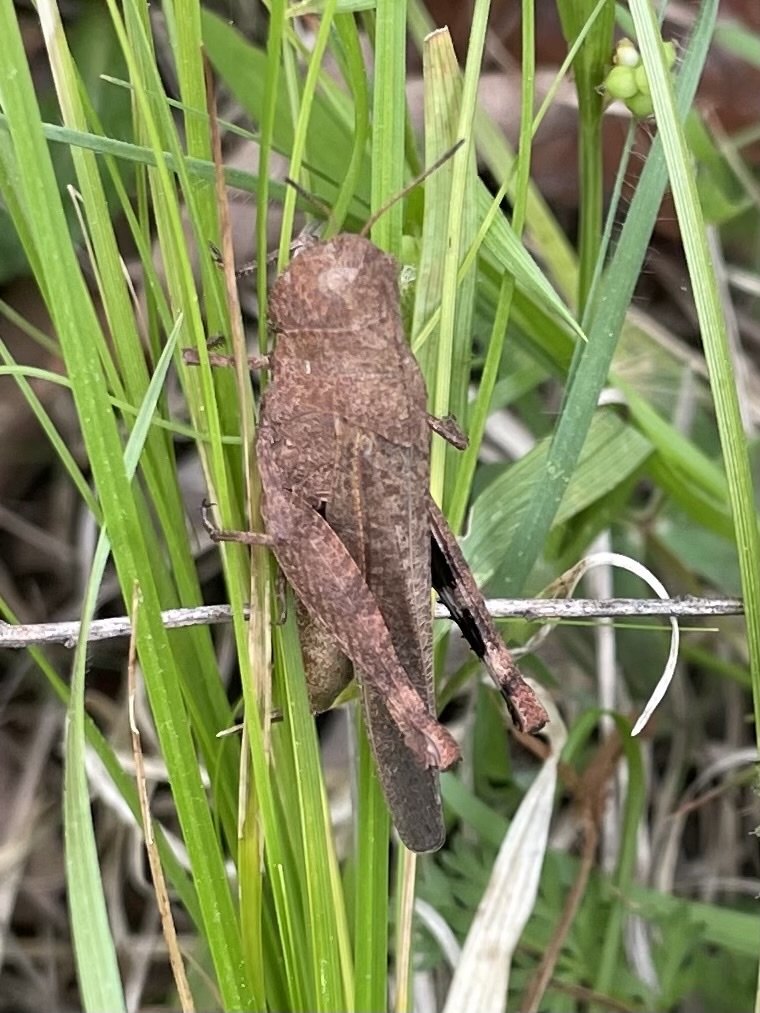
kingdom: Animalia
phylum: Arthropoda
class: Insecta
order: Orthoptera
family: Acrididae
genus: Arphia
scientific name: Arphia sulphurea
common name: Spring yellow-winged locust
